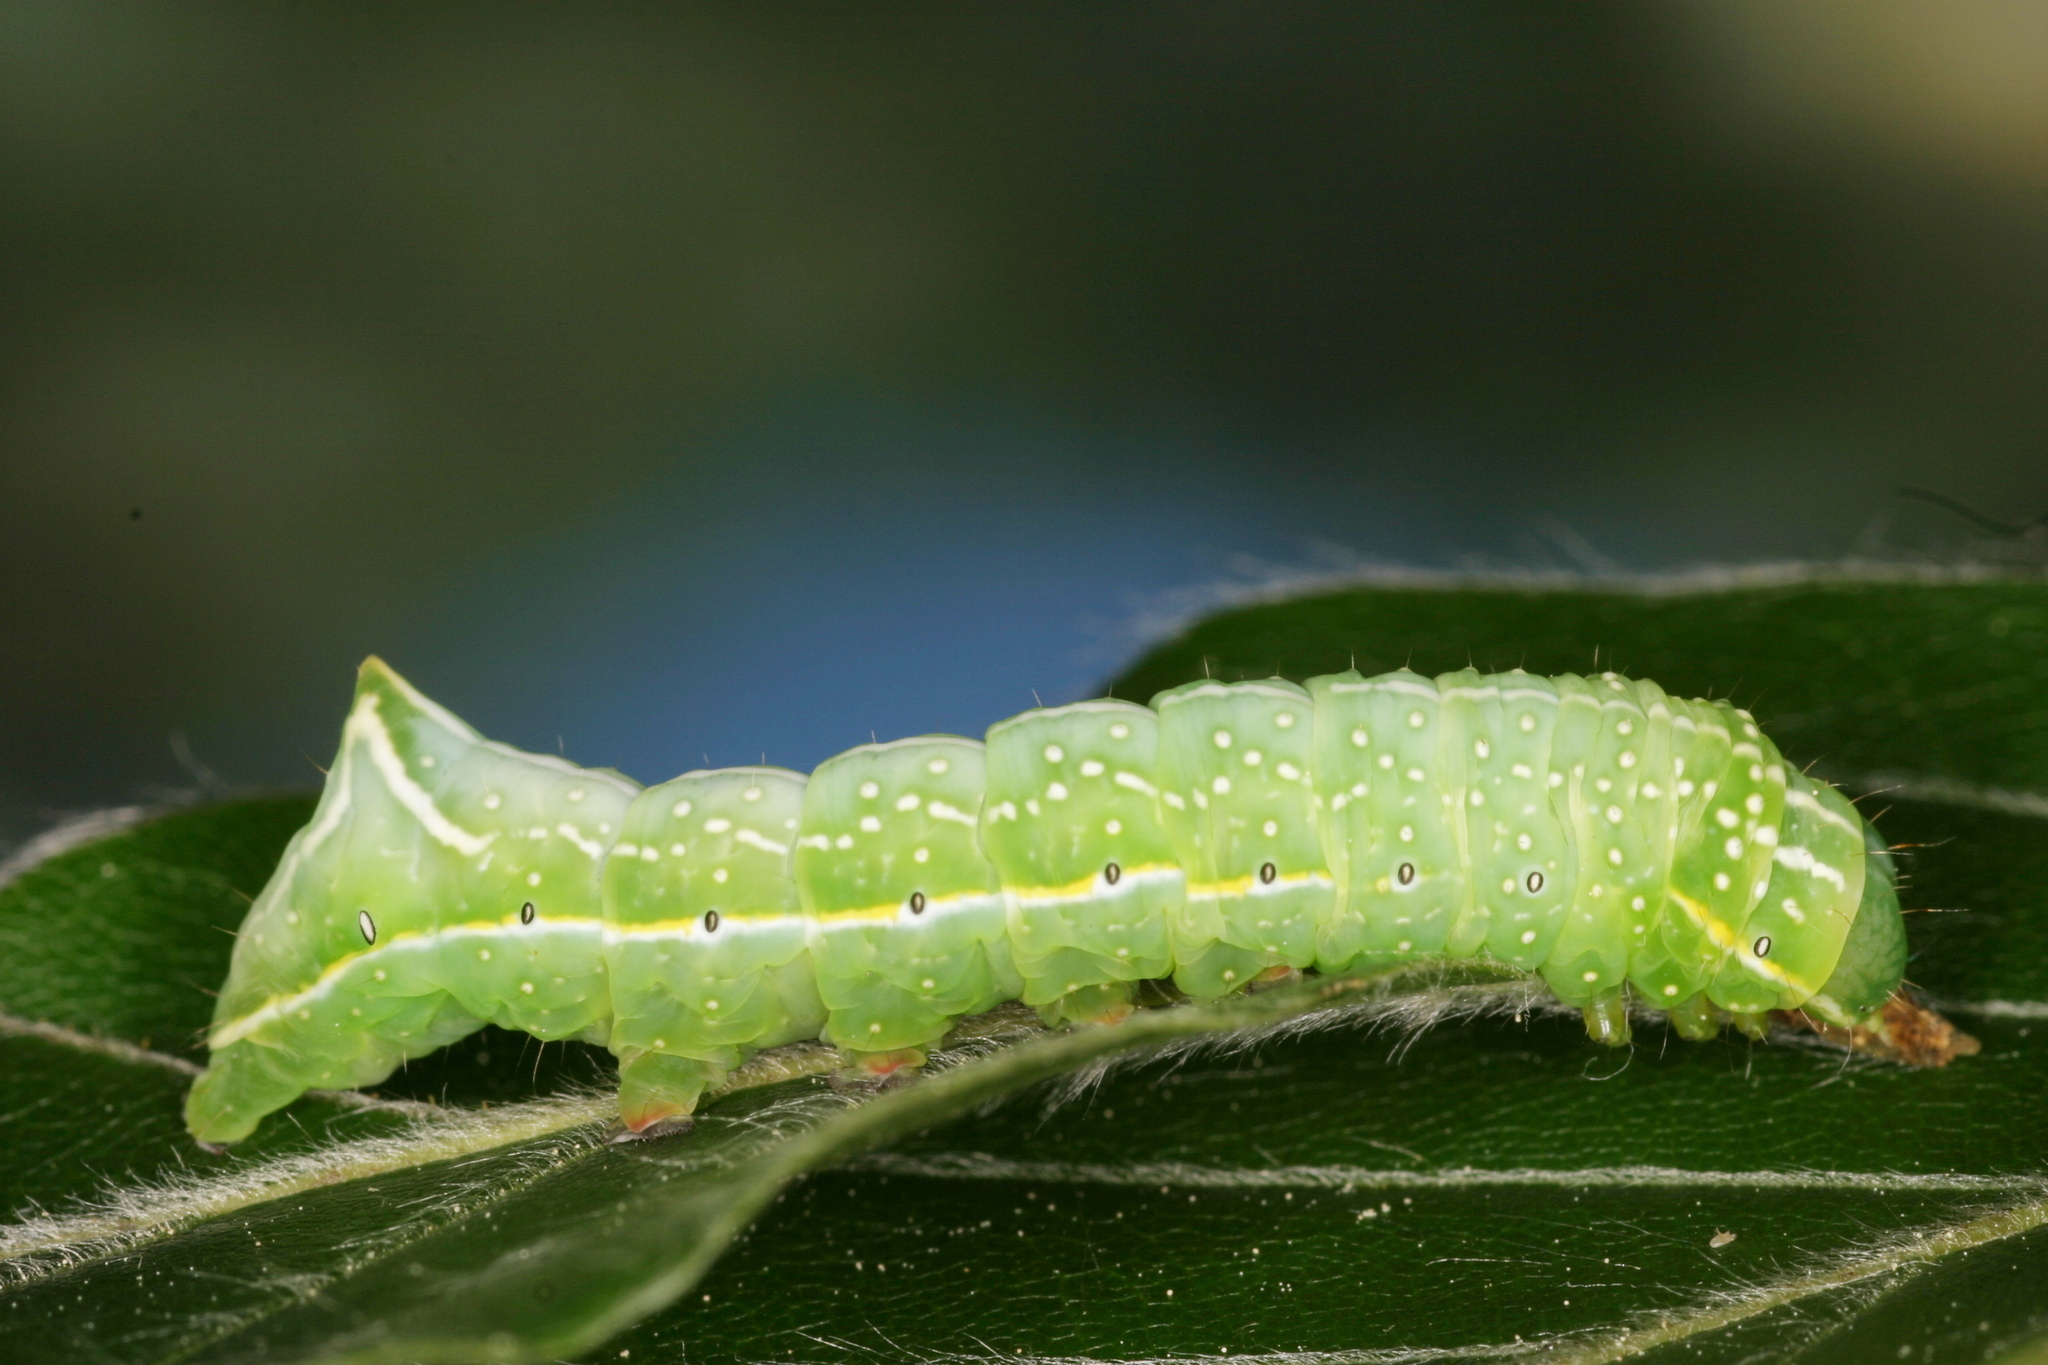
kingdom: Animalia
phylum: Arthropoda
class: Insecta
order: Lepidoptera
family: Noctuidae
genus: Amphipyra
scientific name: Amphipyra pyramidea
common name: Copper underwing
